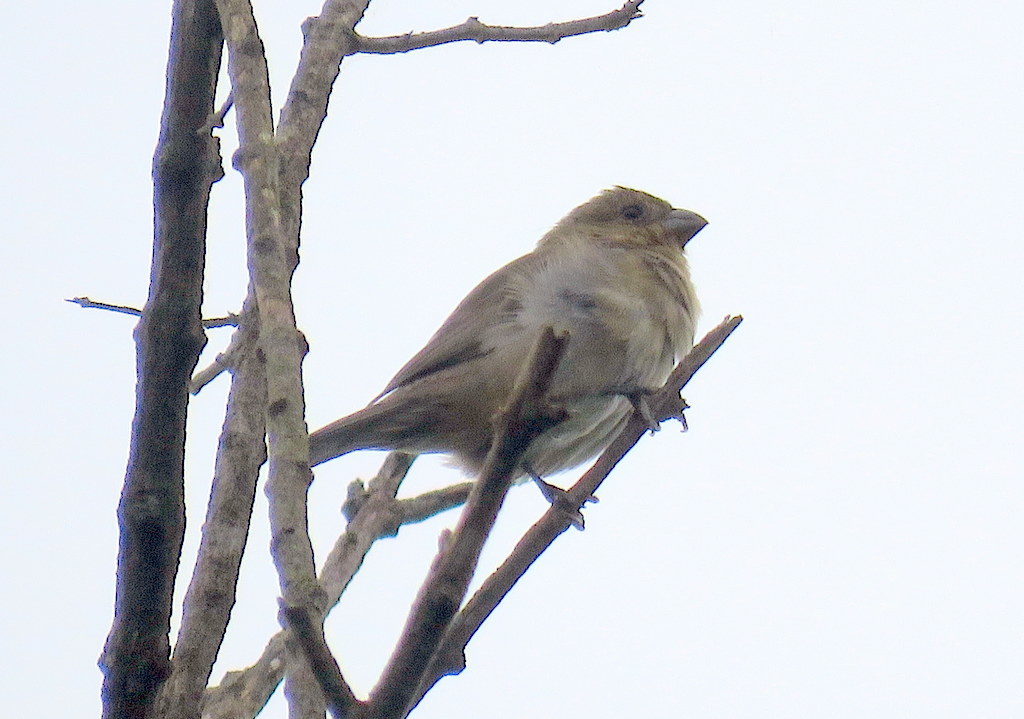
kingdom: Animalia
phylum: Chordata
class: Aves
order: Passeriformes
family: Thraupidae
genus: Sporophila
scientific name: Sporophila caerulescens
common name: Double-collared seedeater
